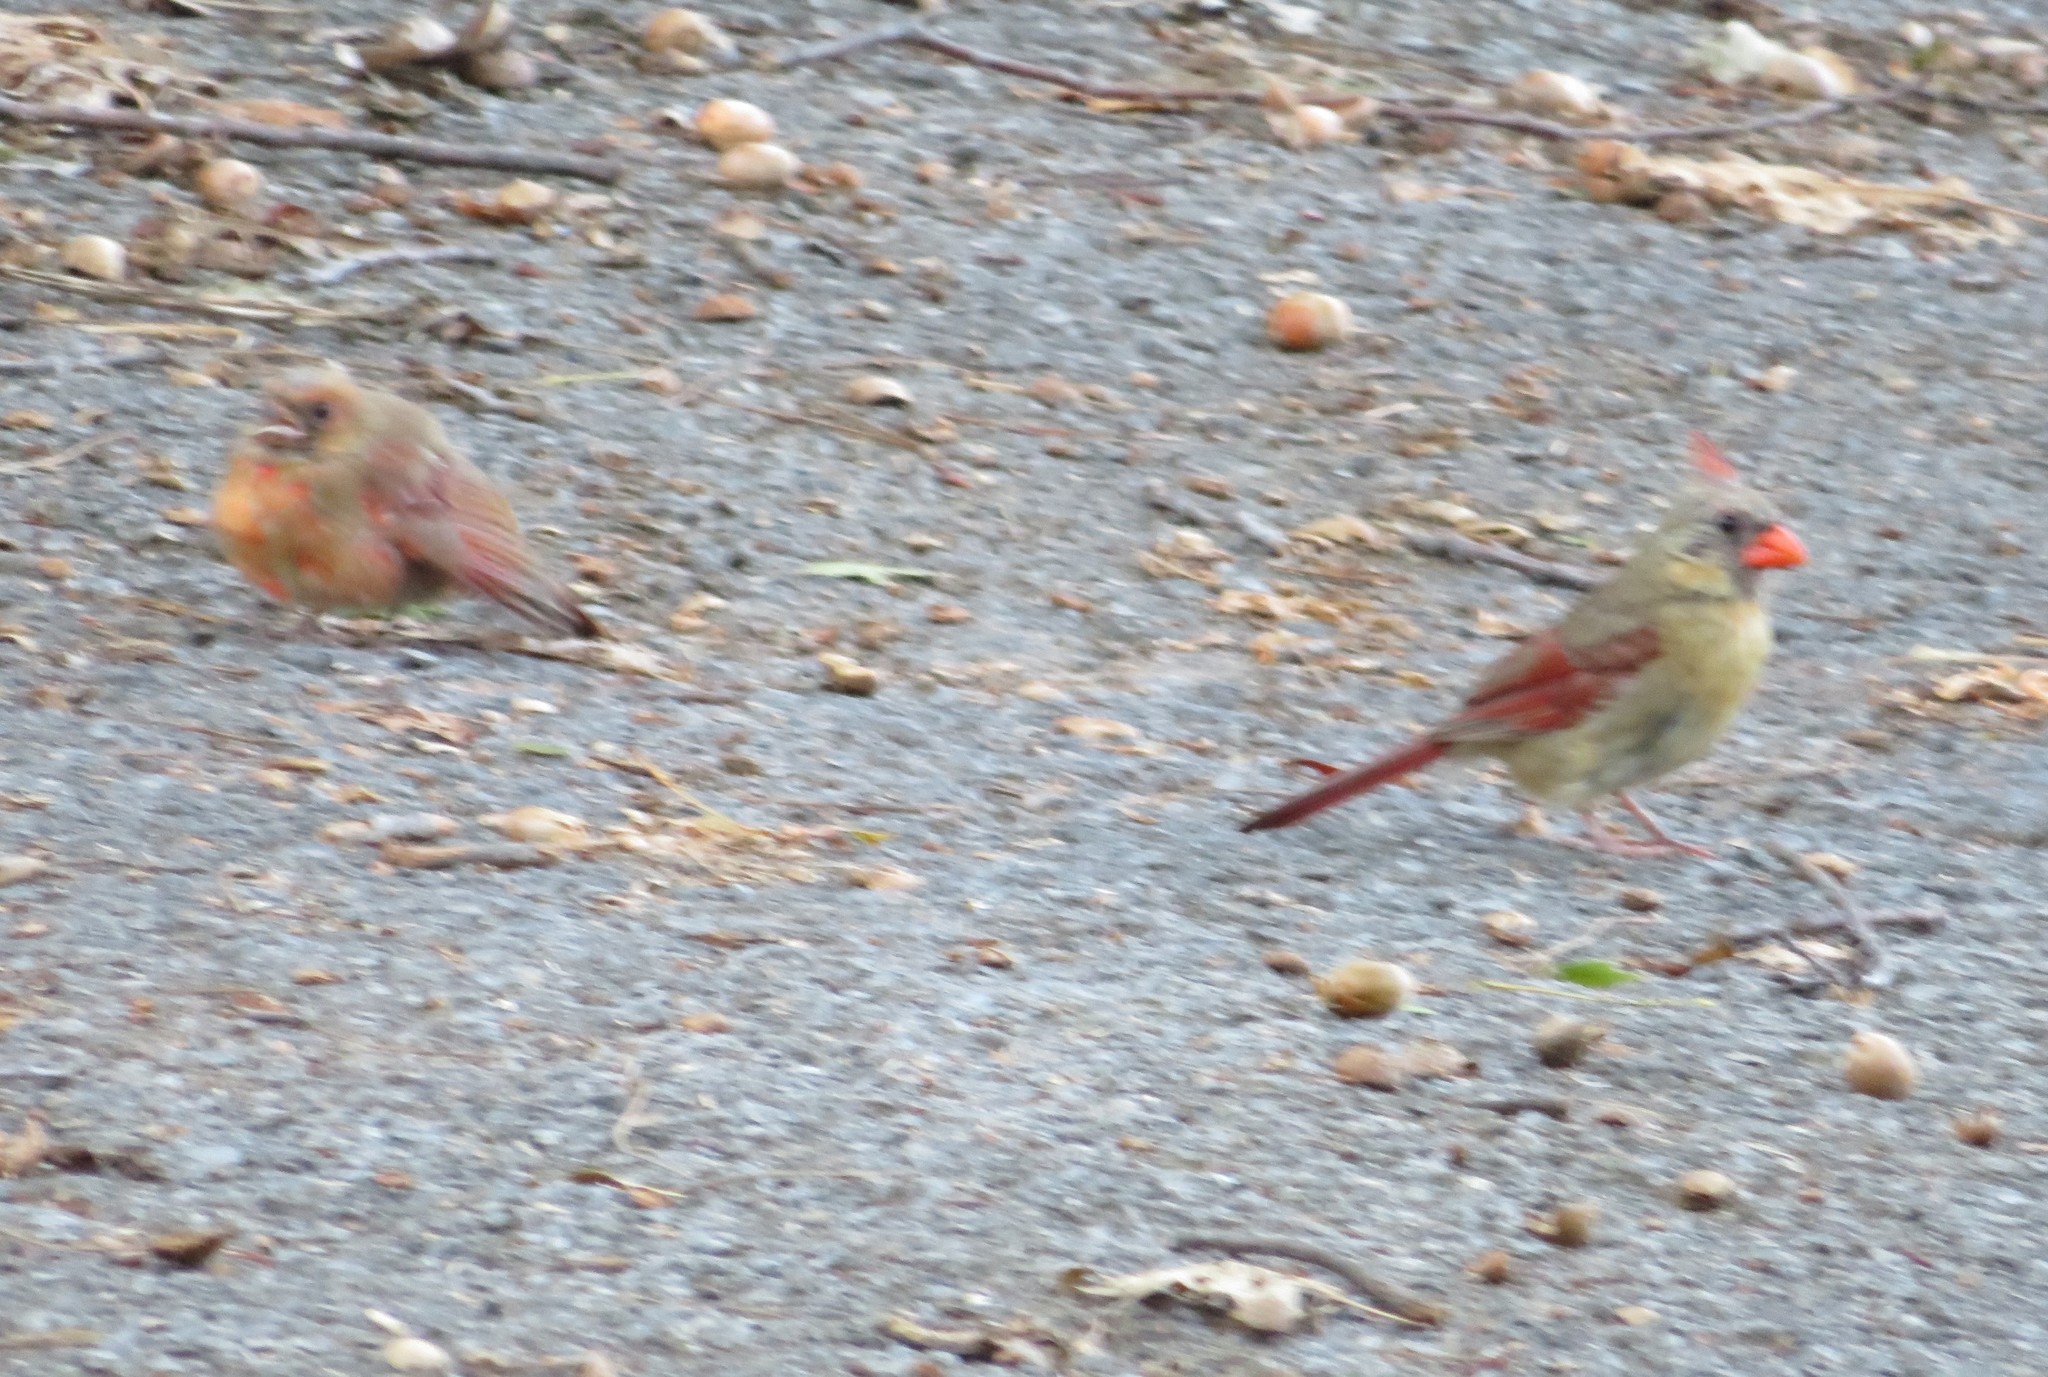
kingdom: Animalia
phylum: Chordata
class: Aves
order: Passeriformes
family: Cardinalidae
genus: Cardinalis
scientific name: Cardinalis cardinalis
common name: Northern cardinal
